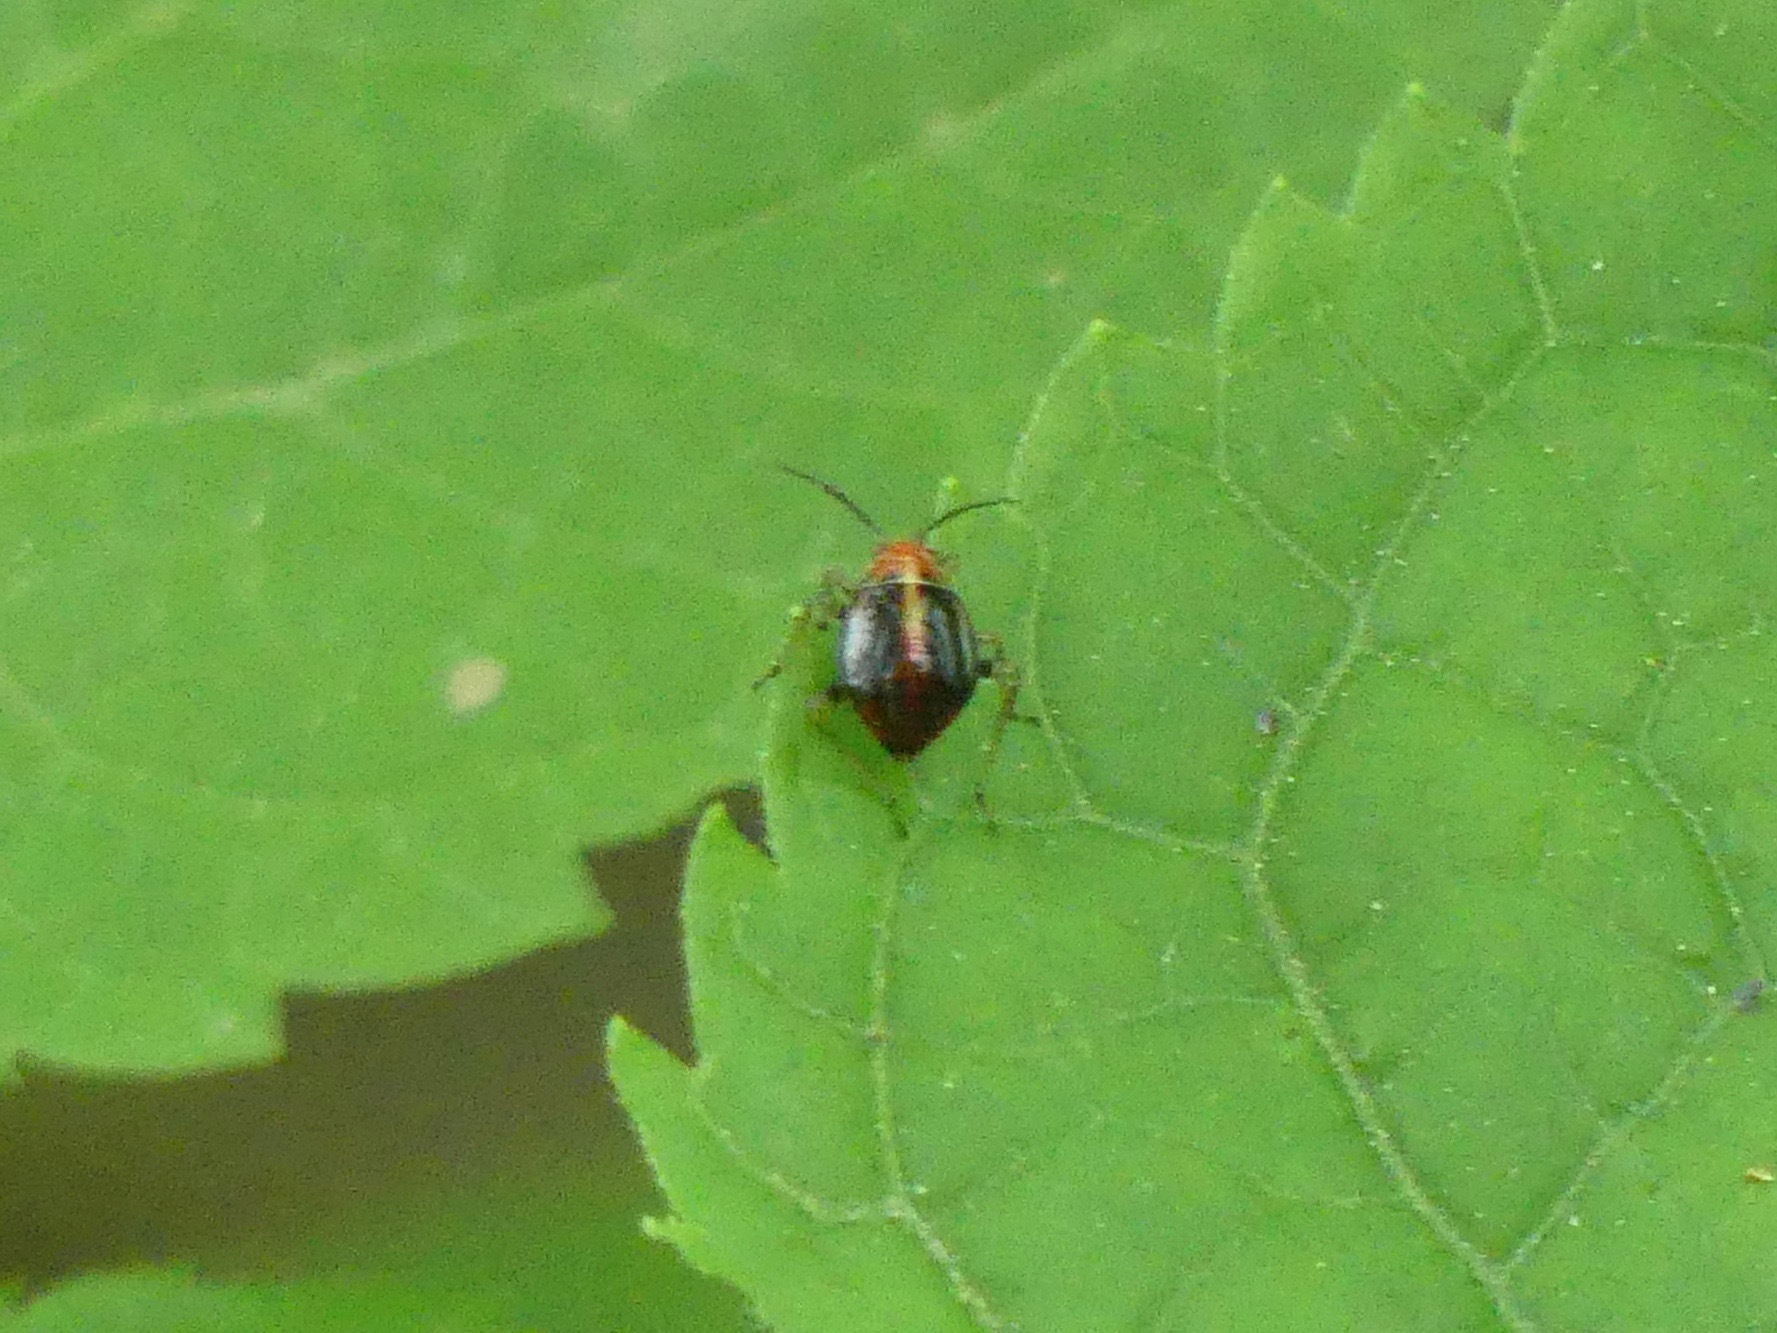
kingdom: Animalia
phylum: Arthropoda
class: Insecta
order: Hemiptera
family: Miridae
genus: Poecilocapsus
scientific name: Poecilocapsus lineatus
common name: Four-lined plant bug
